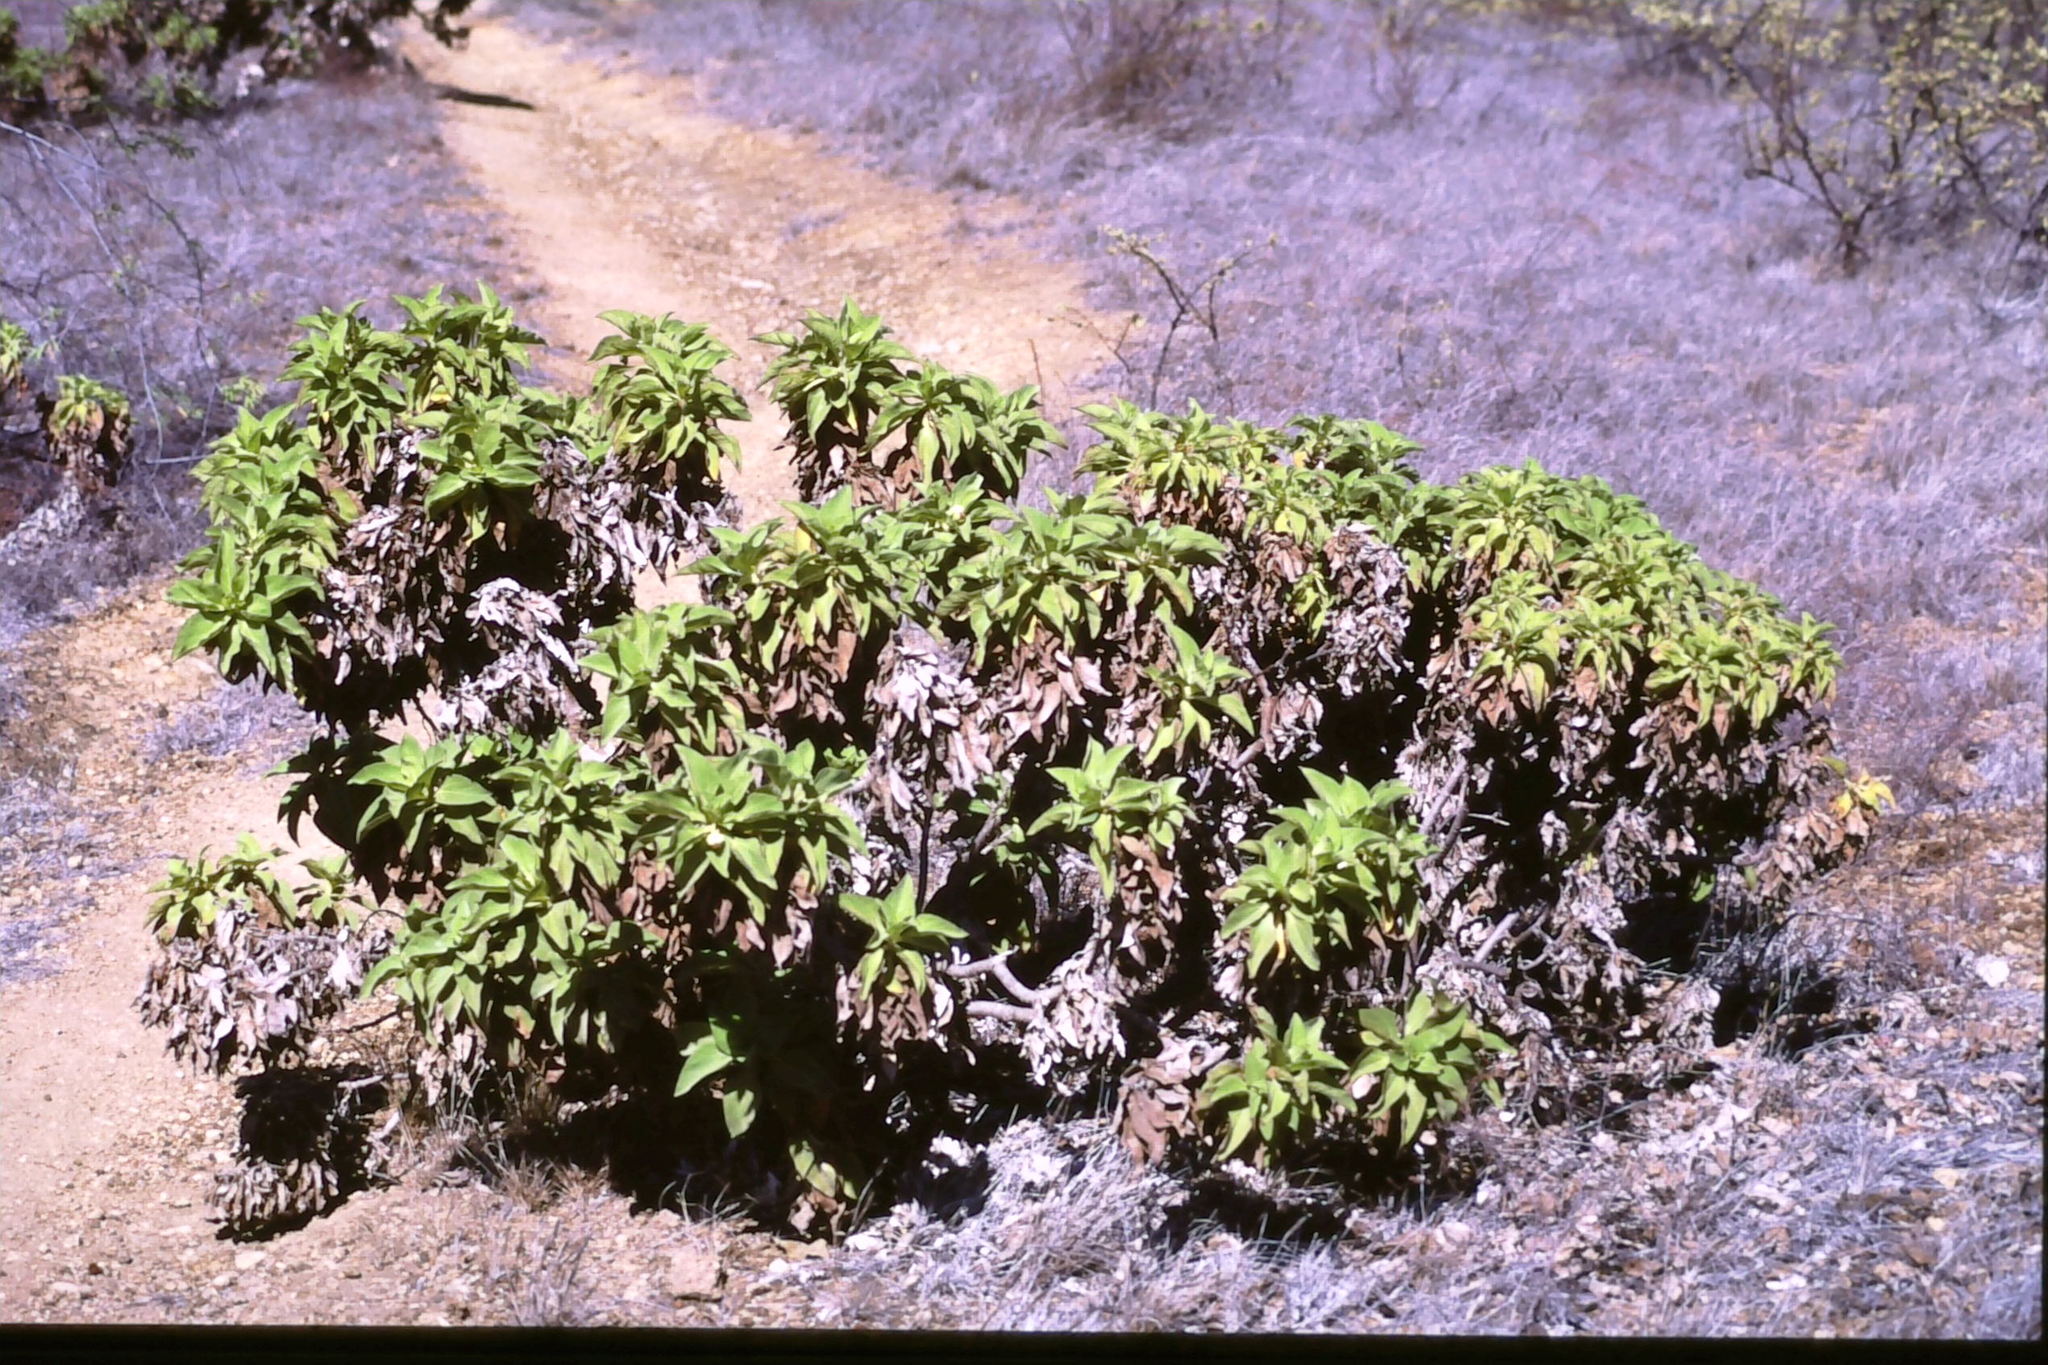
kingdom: Plantae
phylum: Tracheophyta
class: Magnoliopsida
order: Asterales
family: Asteraceae
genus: Scalesia
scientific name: Scalesia affinis
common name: Radiate-headed scalesia
